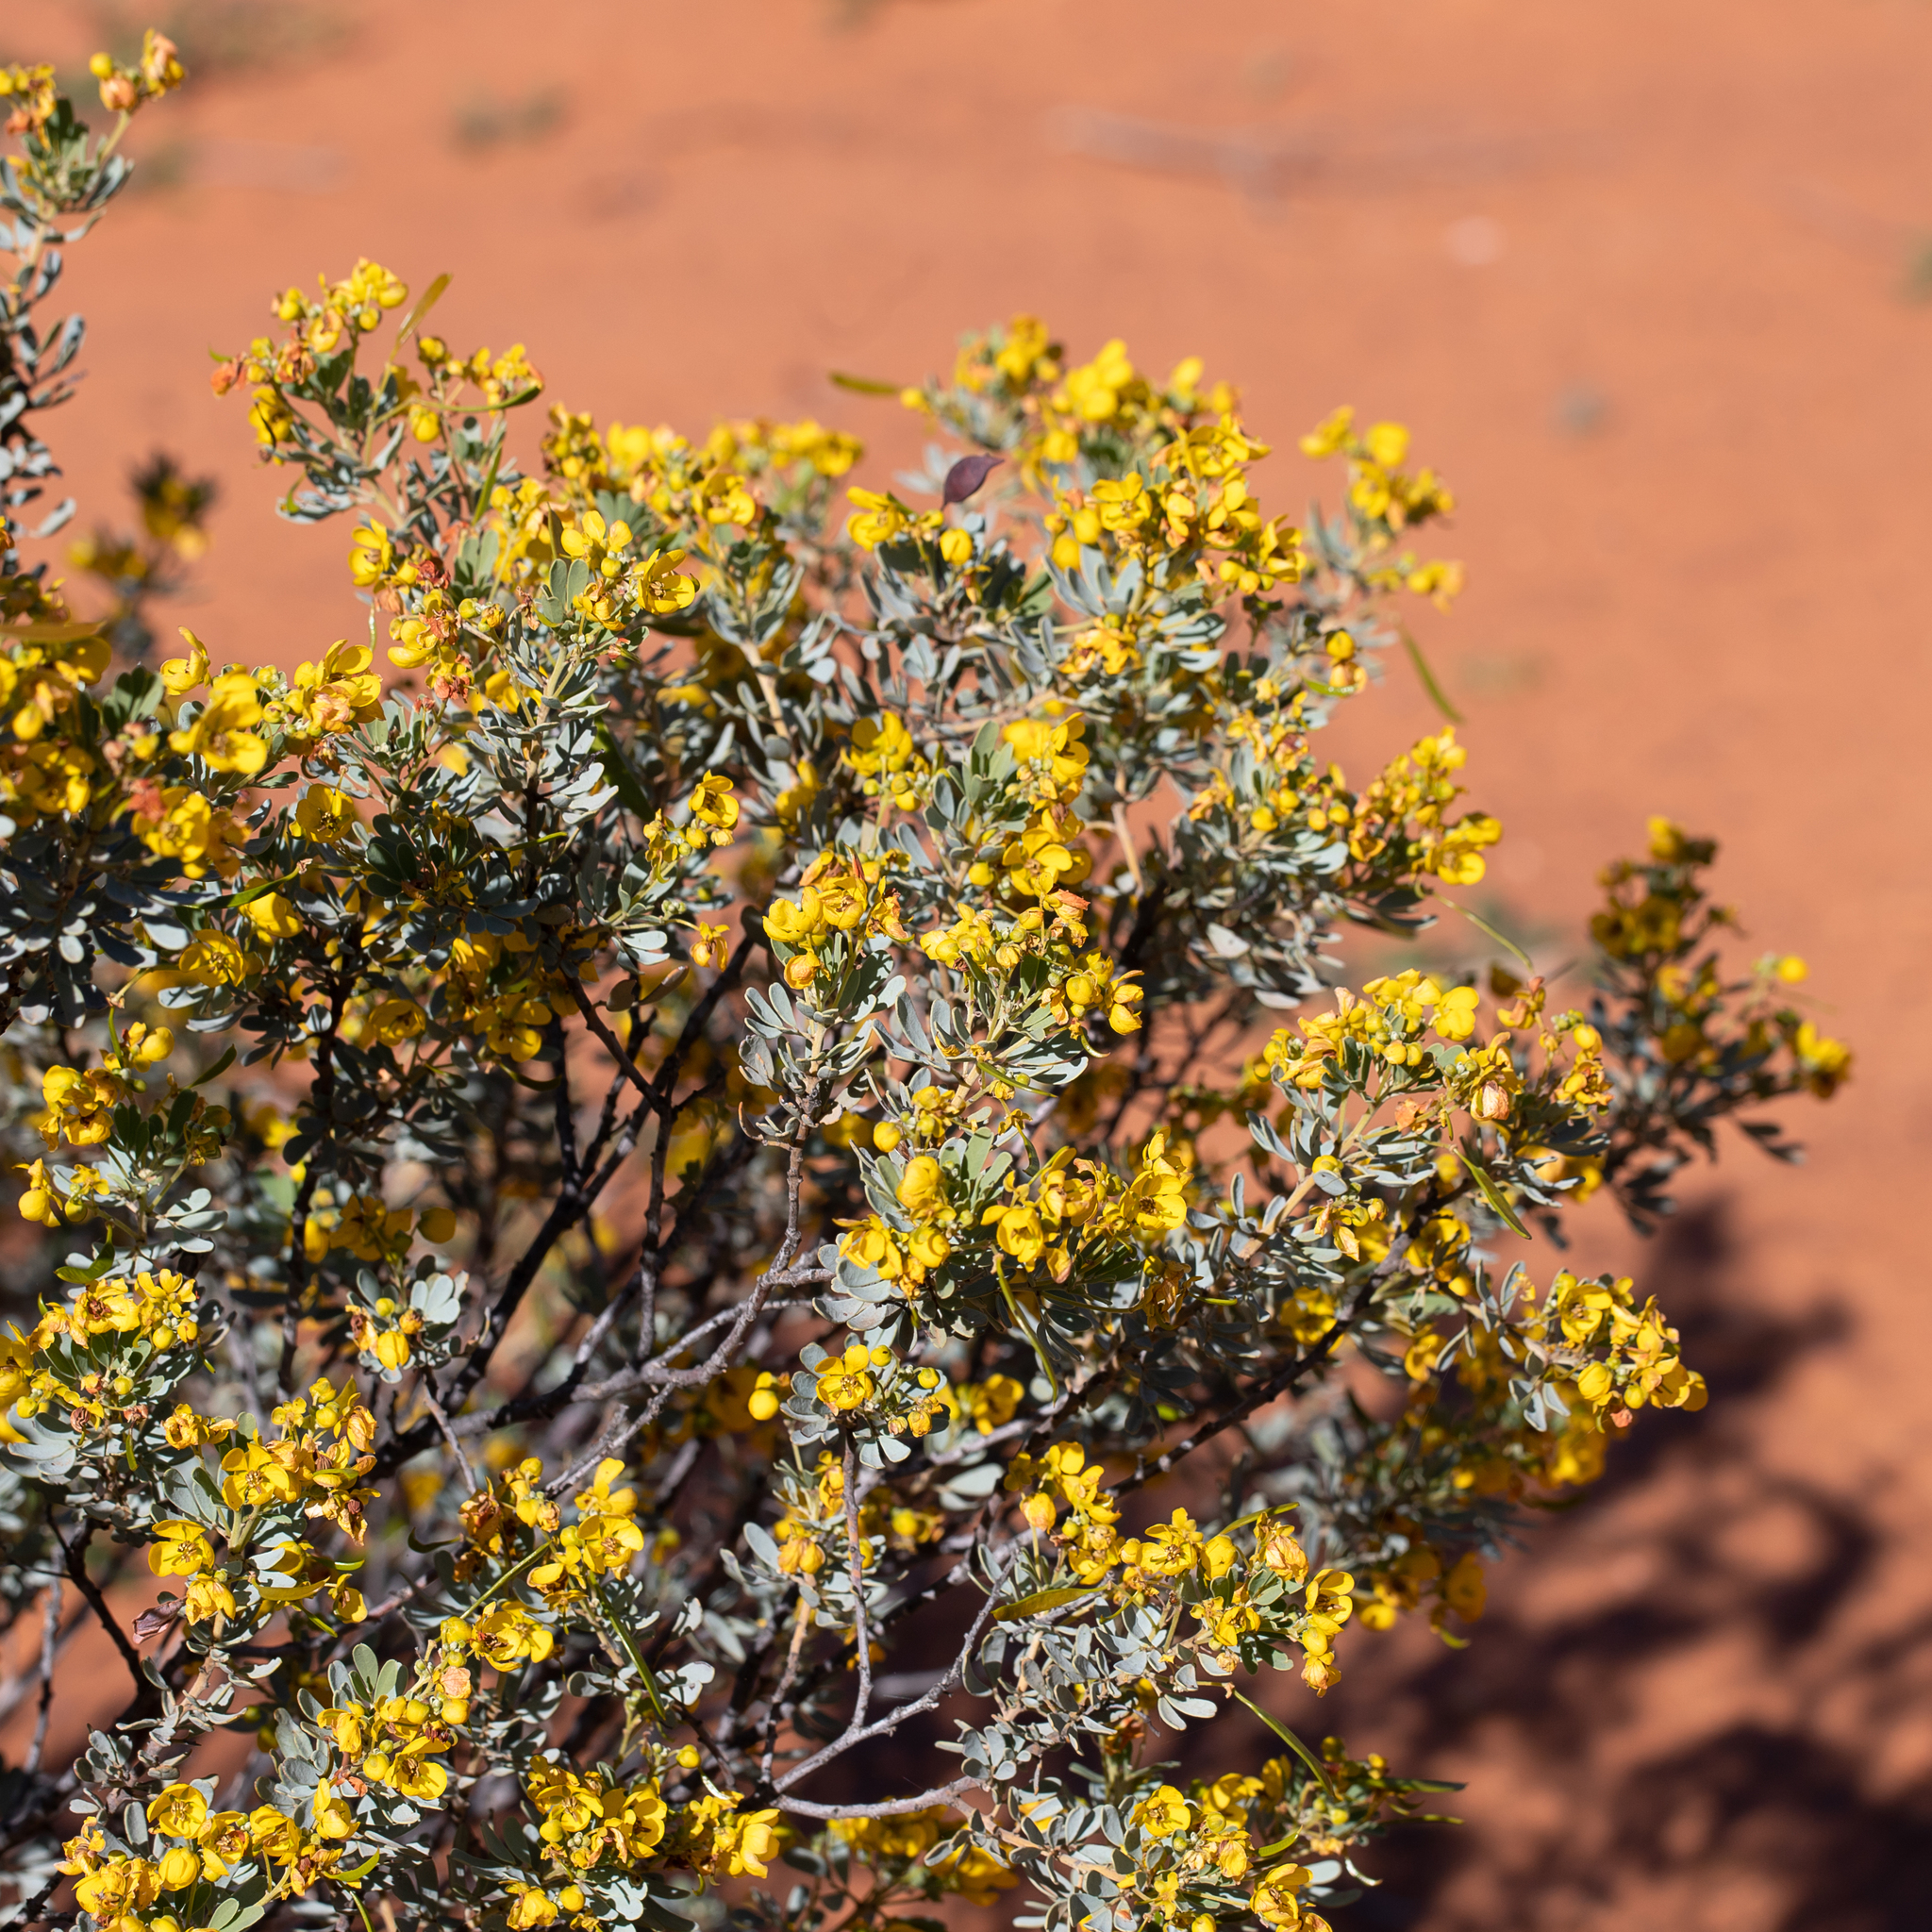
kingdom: Plantae
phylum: Tracheophyta
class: Magnoliopsida
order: Fabales
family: Fabaceae
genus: Senna
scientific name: Senna artemisioides
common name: Burnt-leaved acacia
